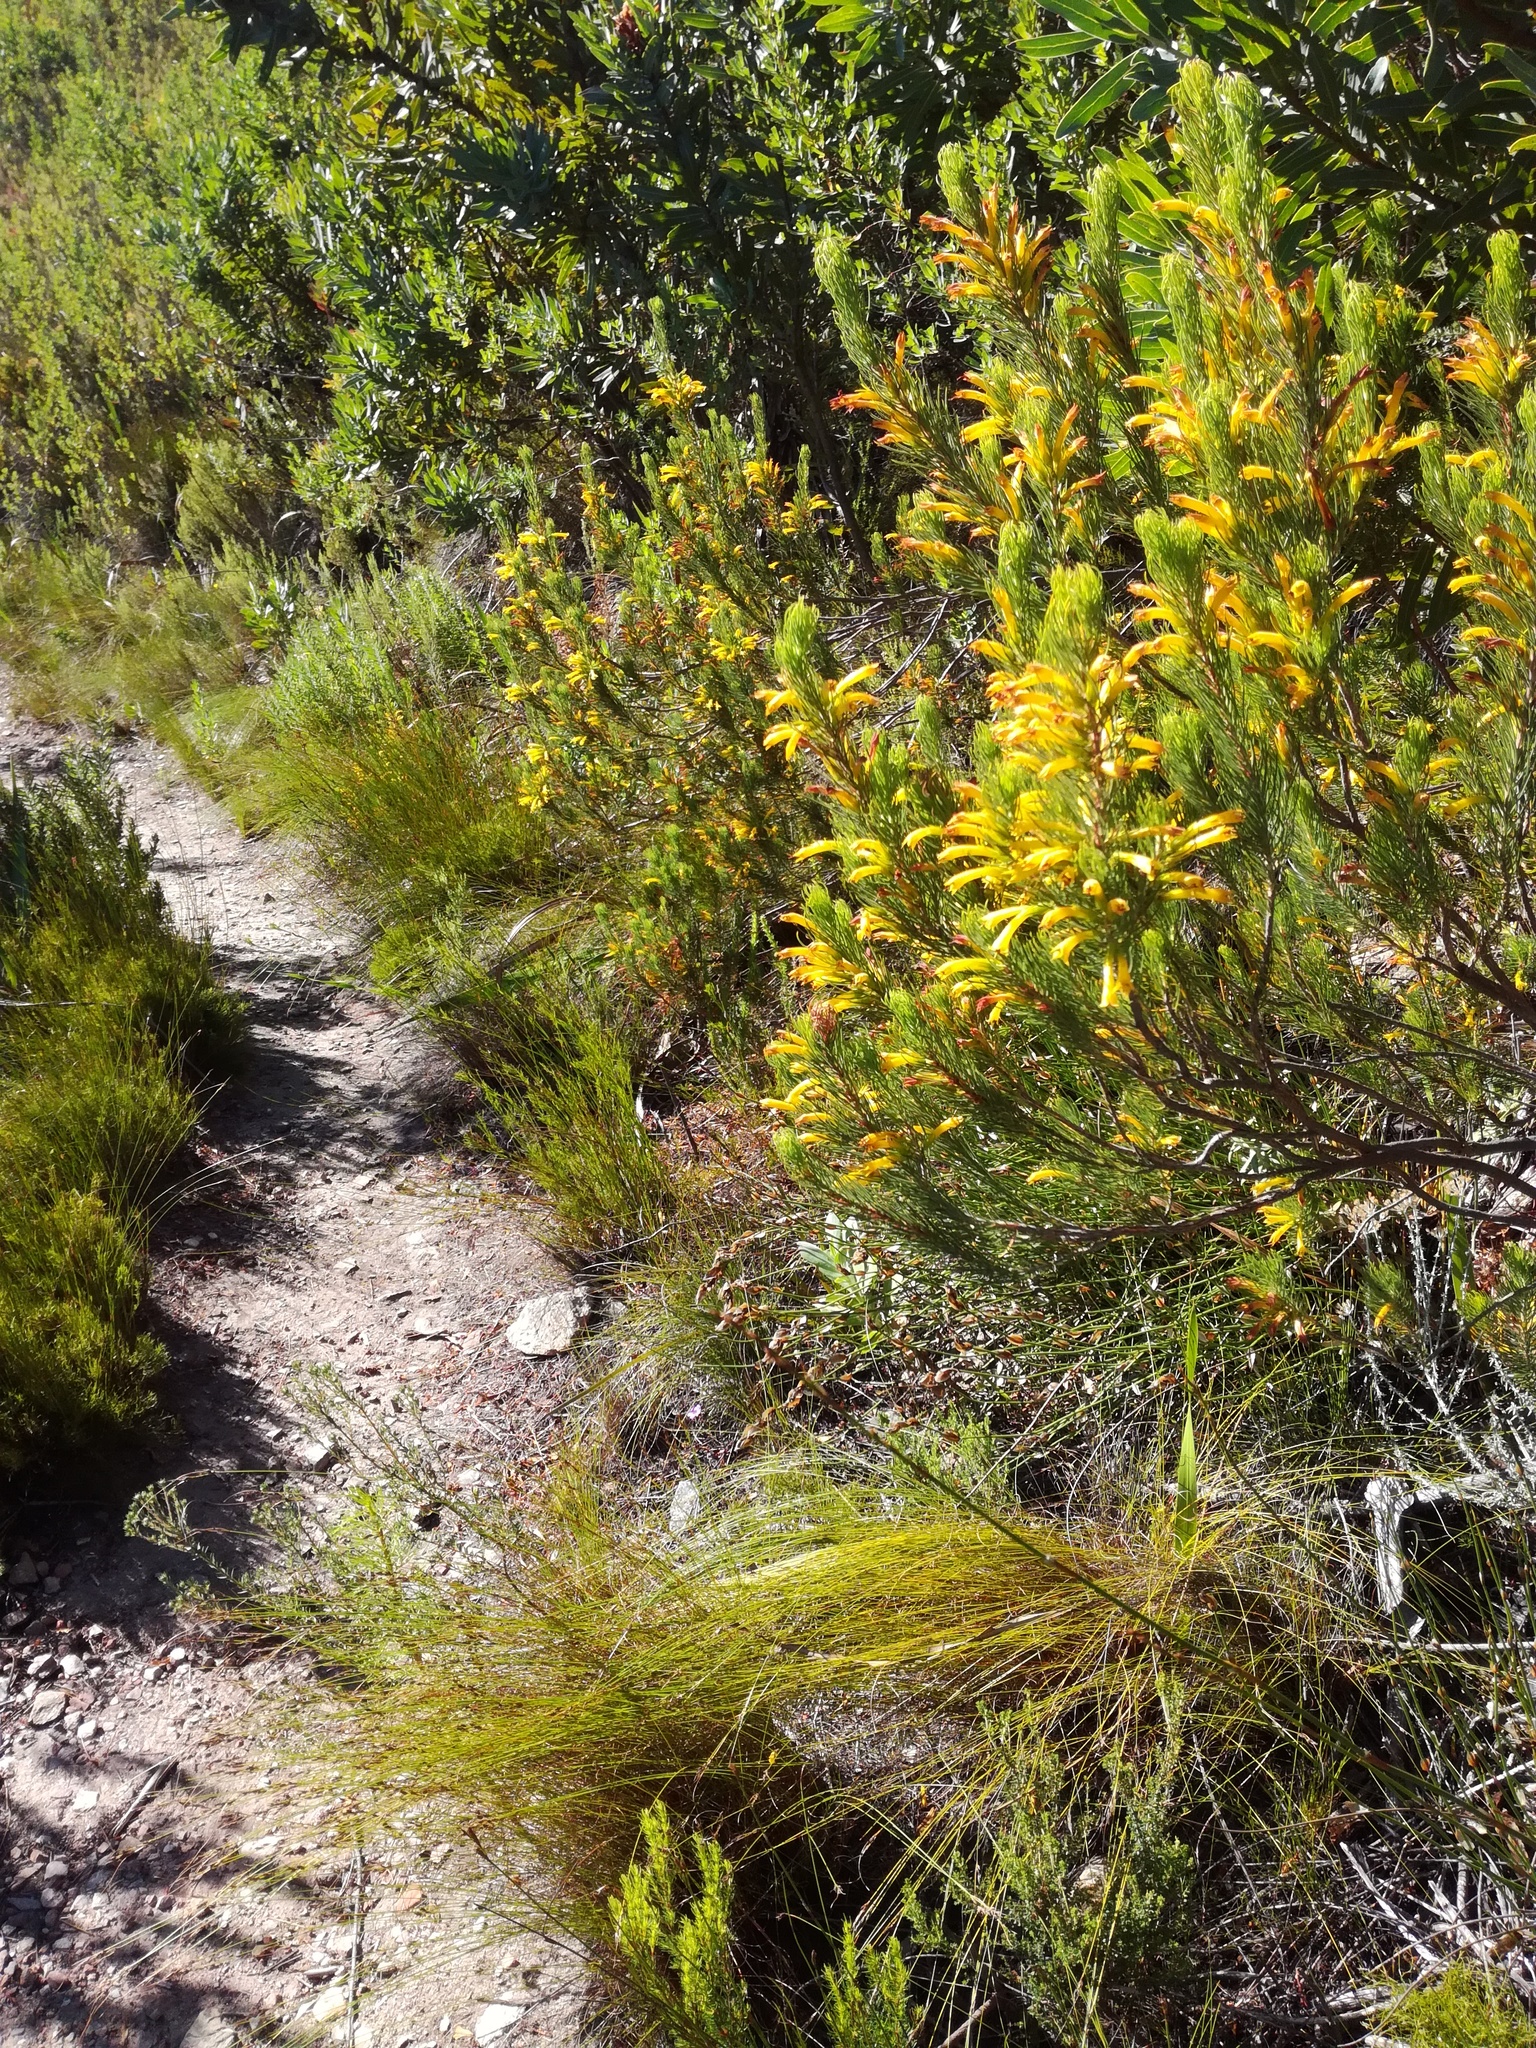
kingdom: Plantae
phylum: Tracheophyta
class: Magnoliopsida
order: Ericales
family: Ericaceae
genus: Erica
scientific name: Erica grandiflora
